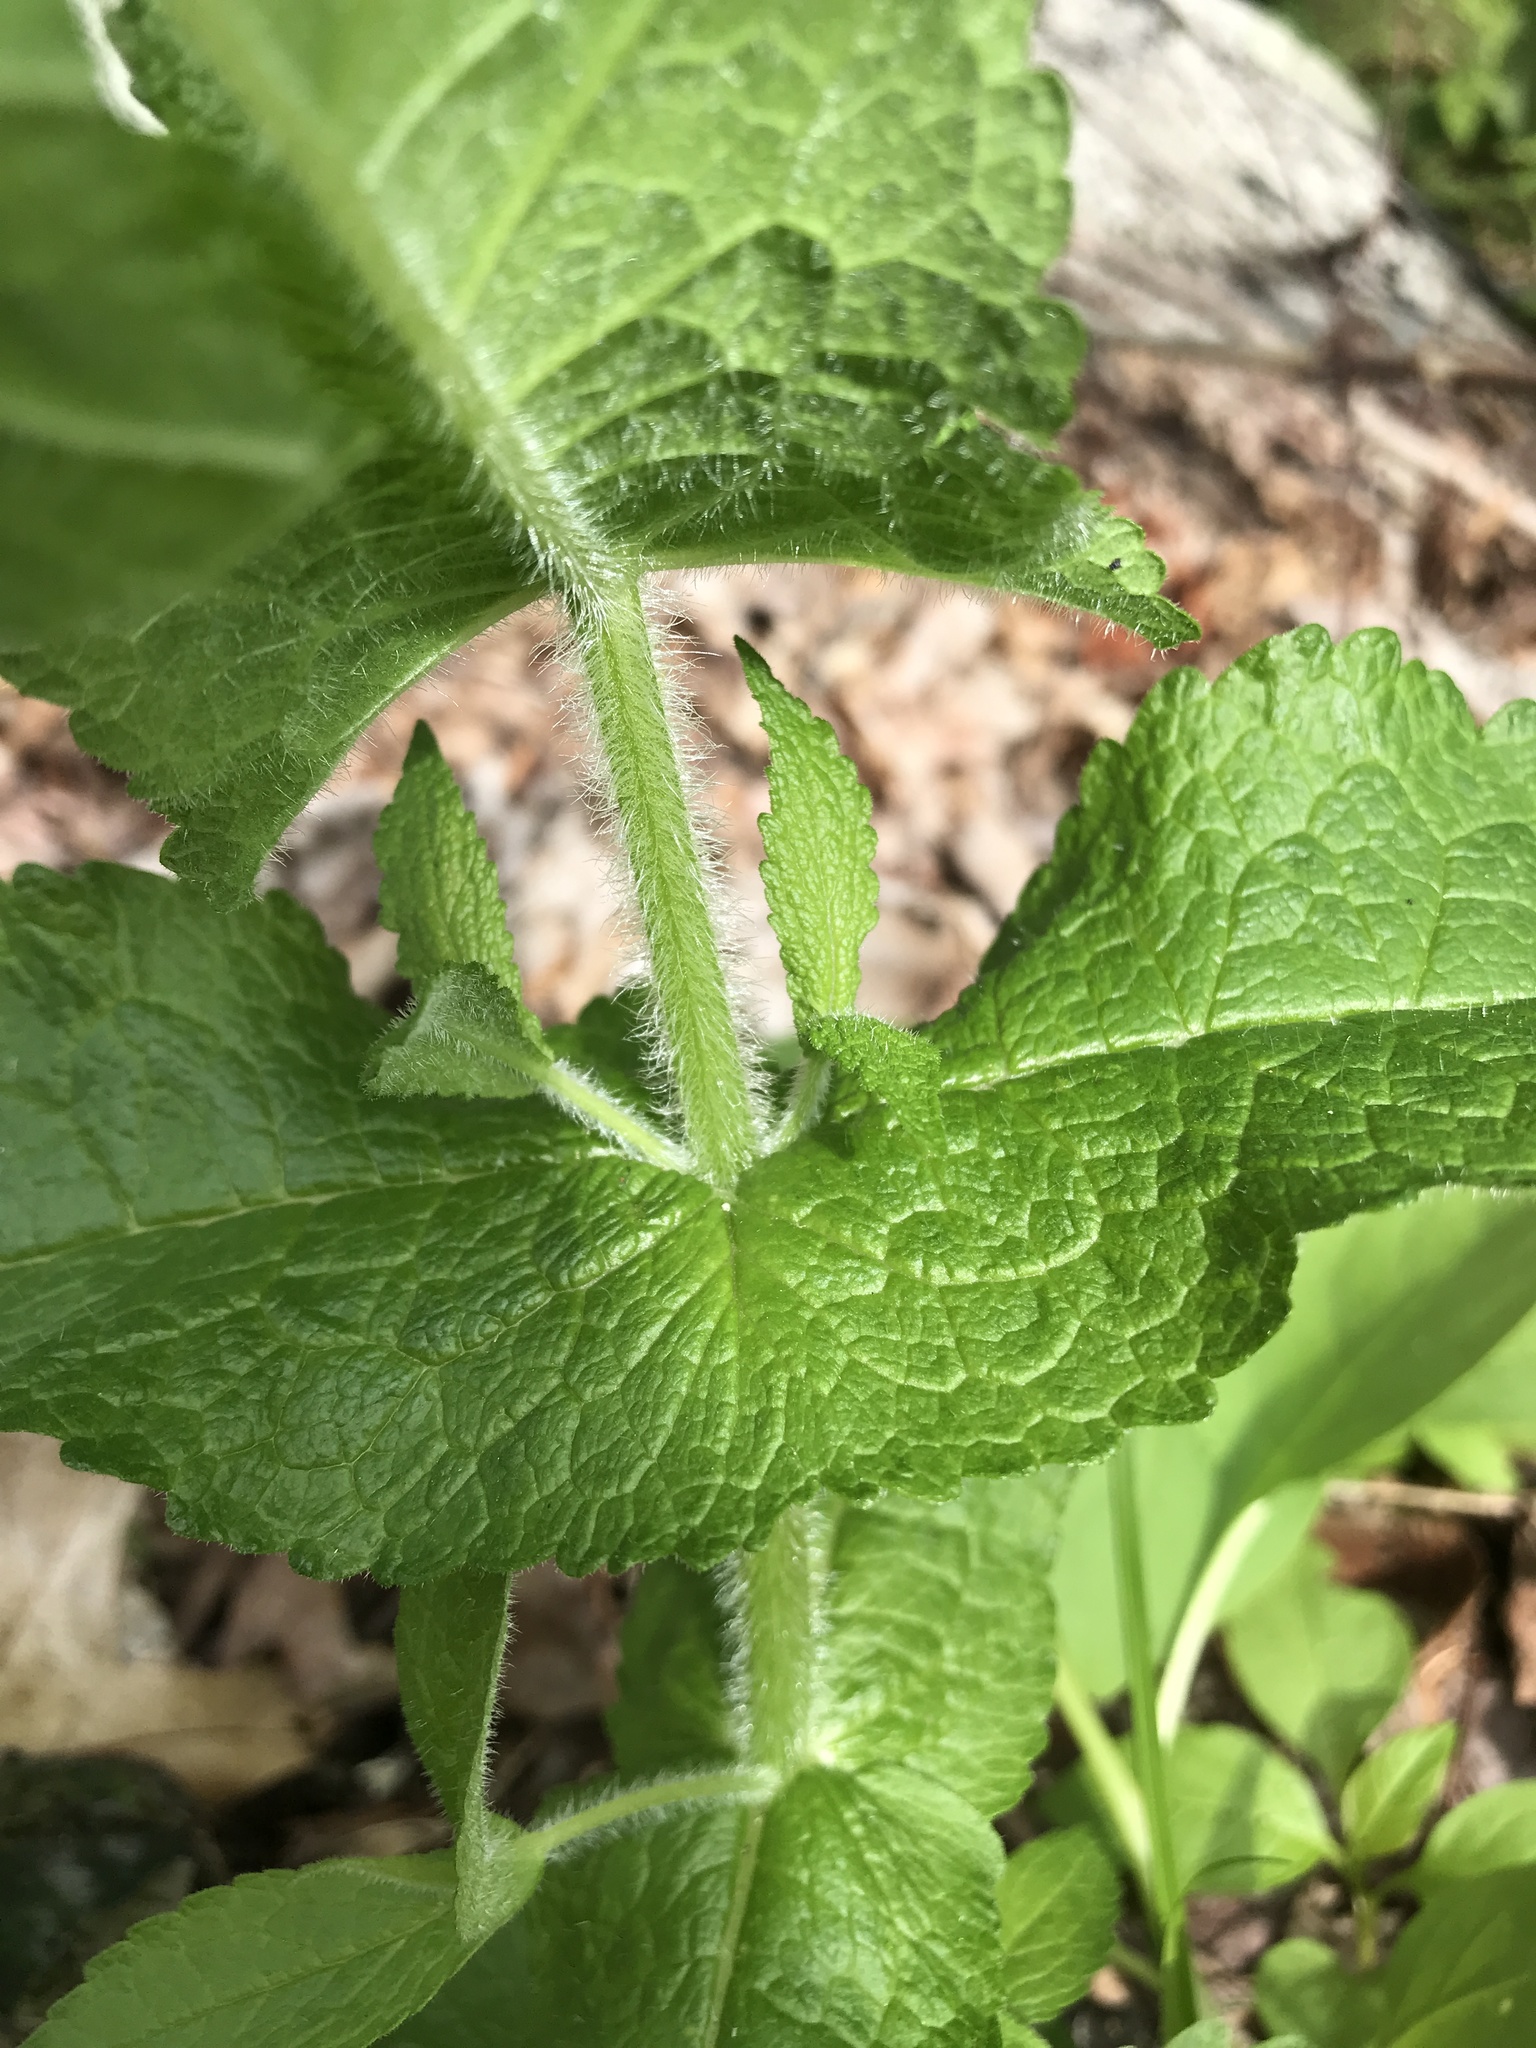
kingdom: Plantae
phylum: Tracheophyta
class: Magnoliopsida
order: Asterales
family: Asteraceae
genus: Eupatorium
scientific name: Eupatorium perfoliatum
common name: Boneset
